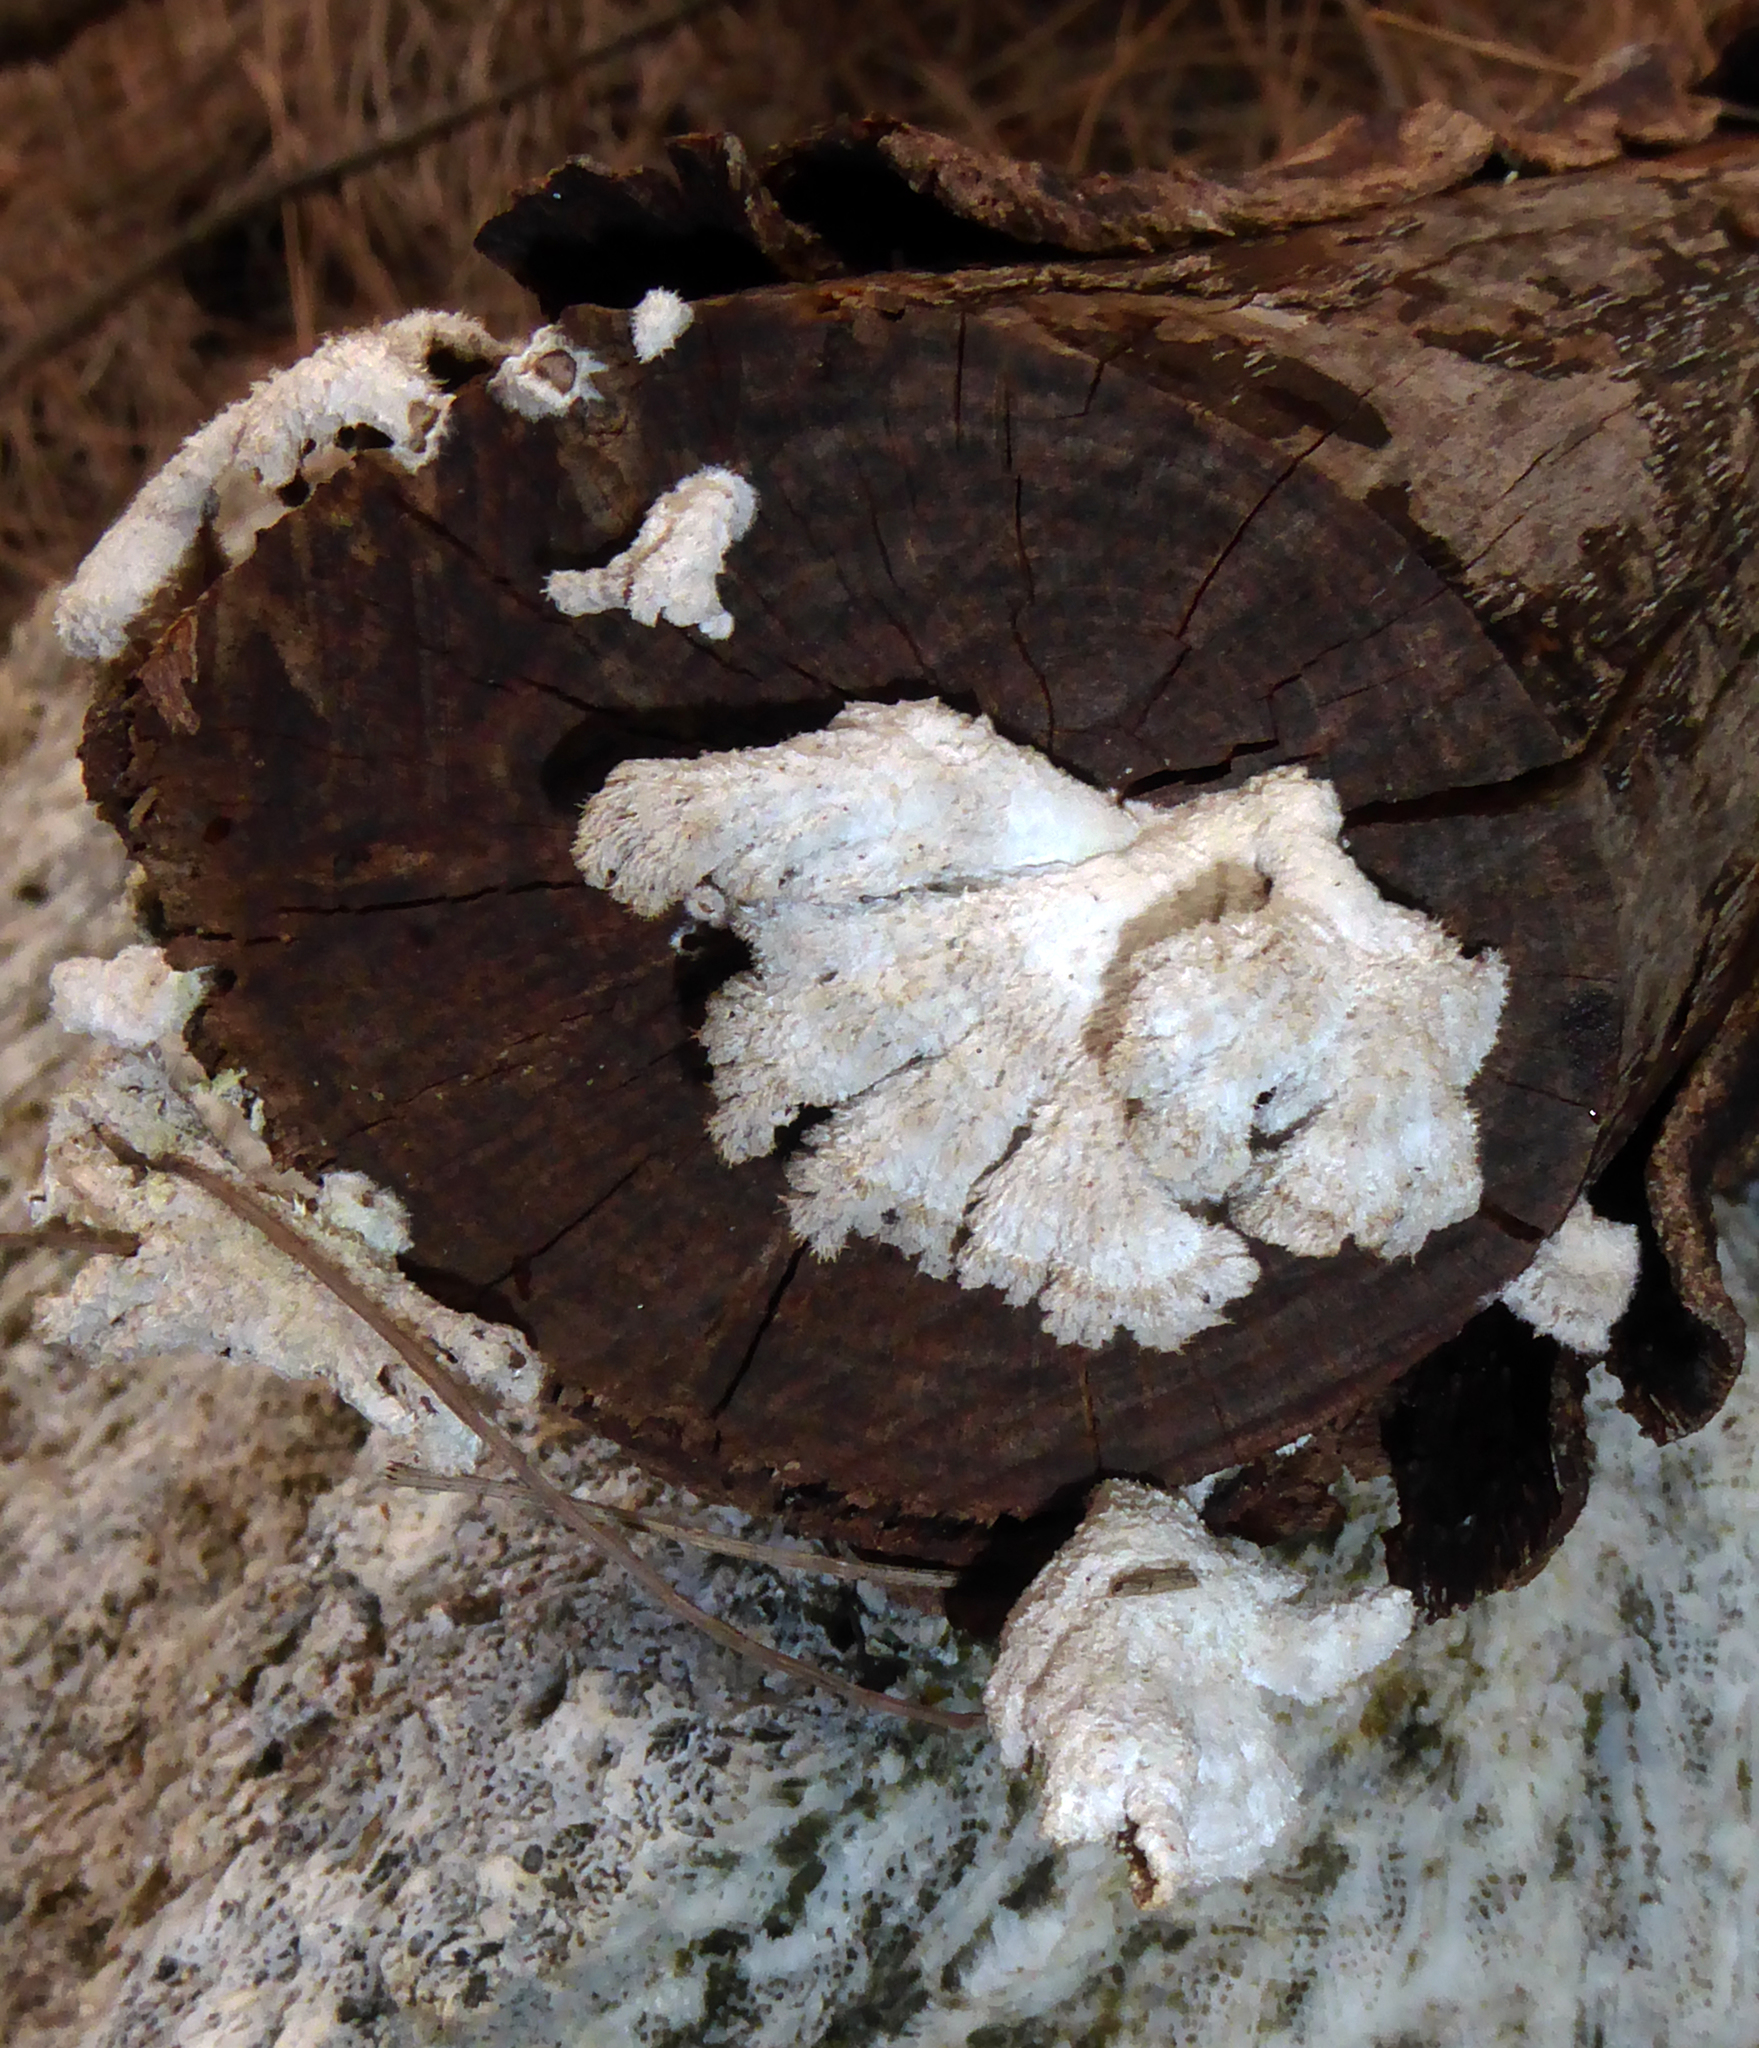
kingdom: Fungi
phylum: Basidiomycota
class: Agaricomycetes
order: Agaricales
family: Schizophyllaceae
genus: Schizophyllum
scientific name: Schizophyllum commune
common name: Common porecrust
